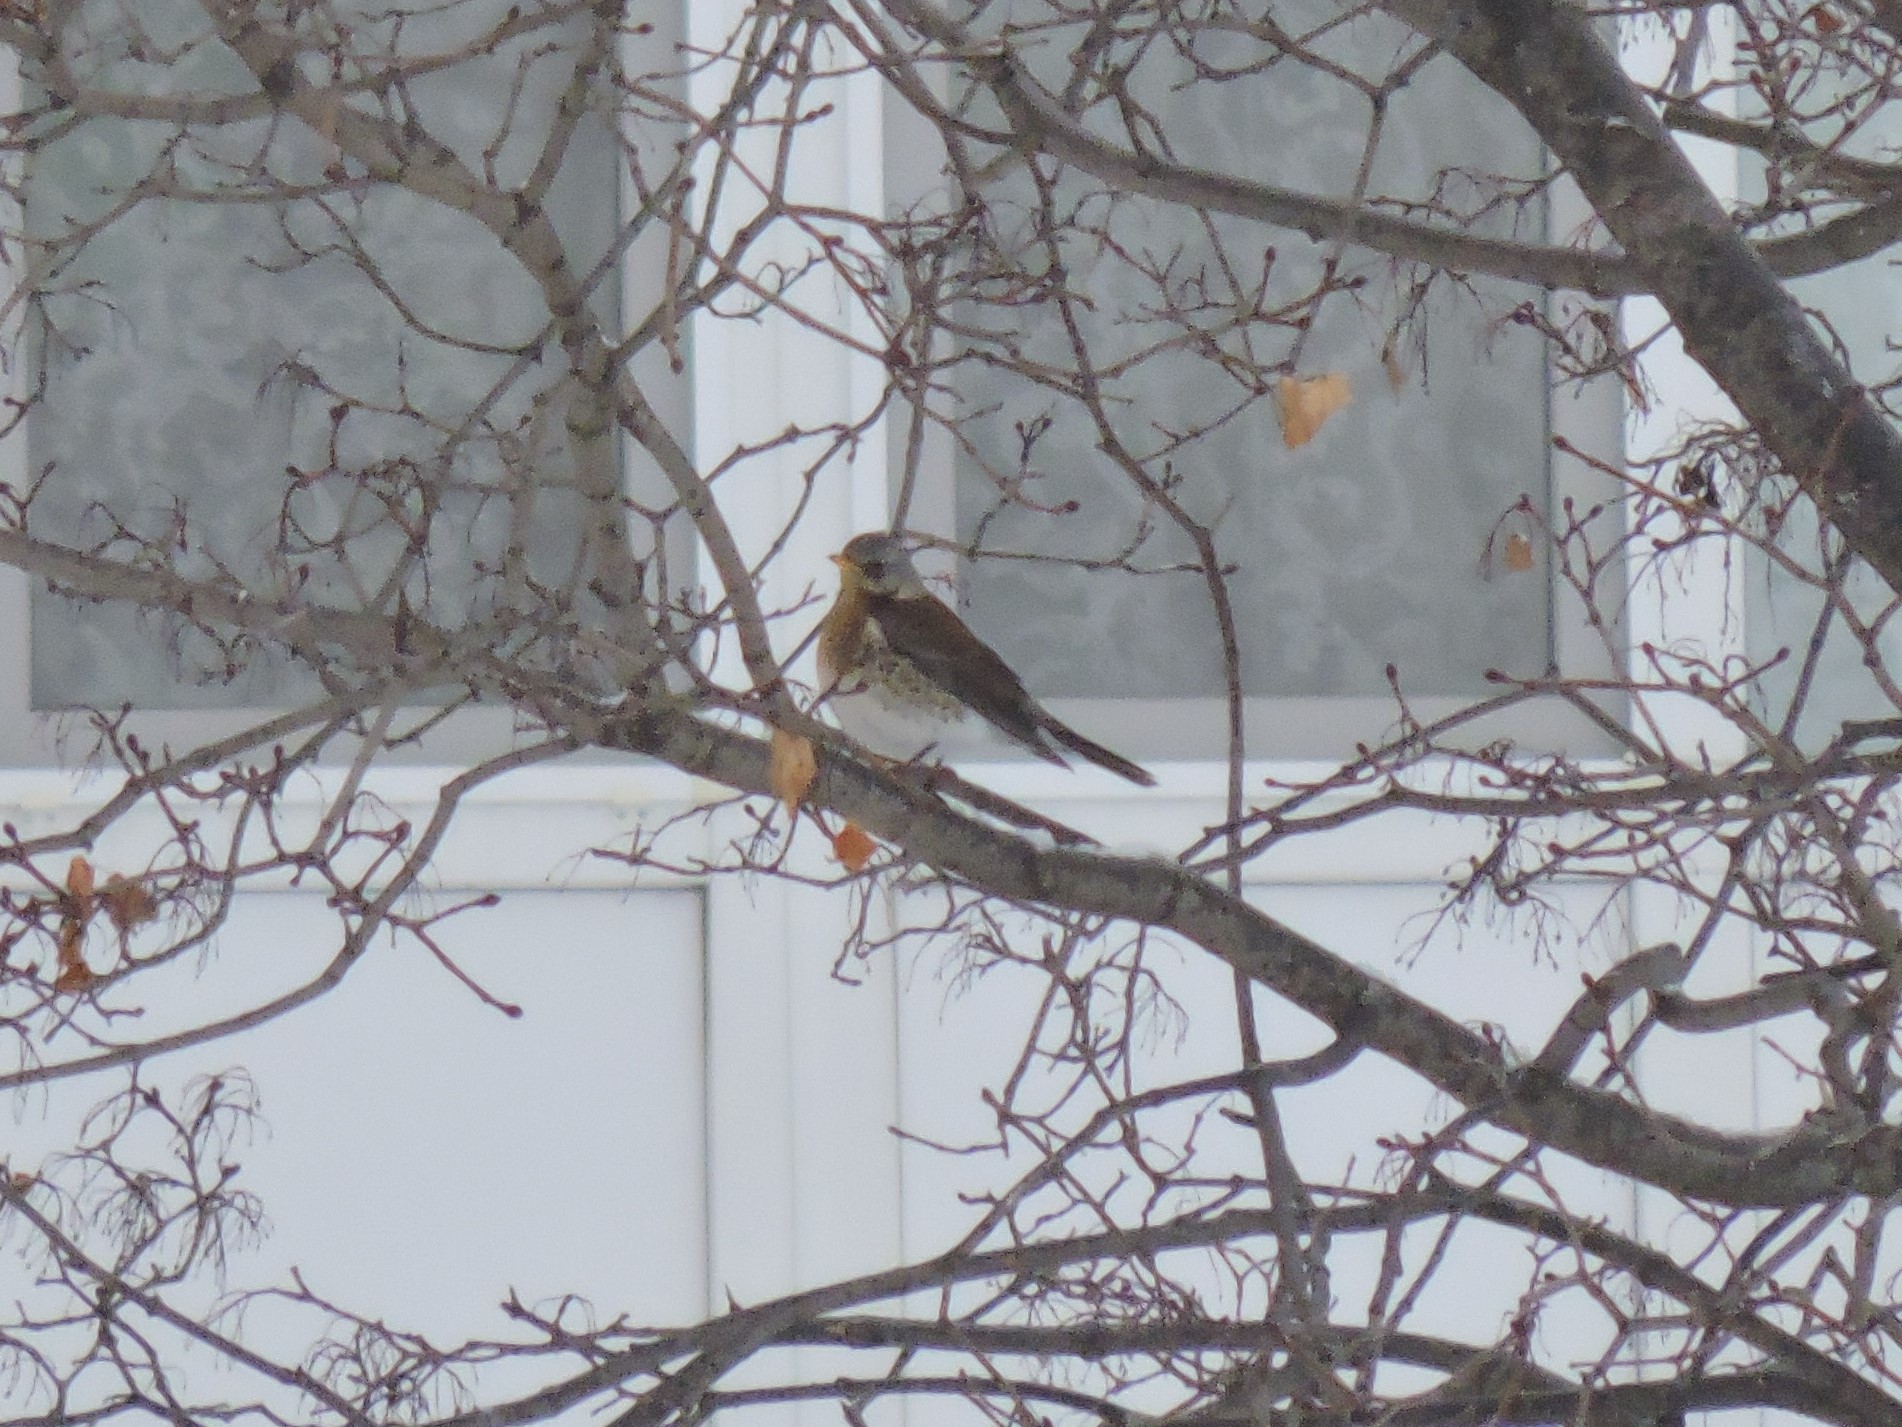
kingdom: Animalia
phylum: Chordata
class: Aves
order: Passeriformes
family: Turdidae
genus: Turdus
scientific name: Turdus pilaris
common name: Fieldfare
